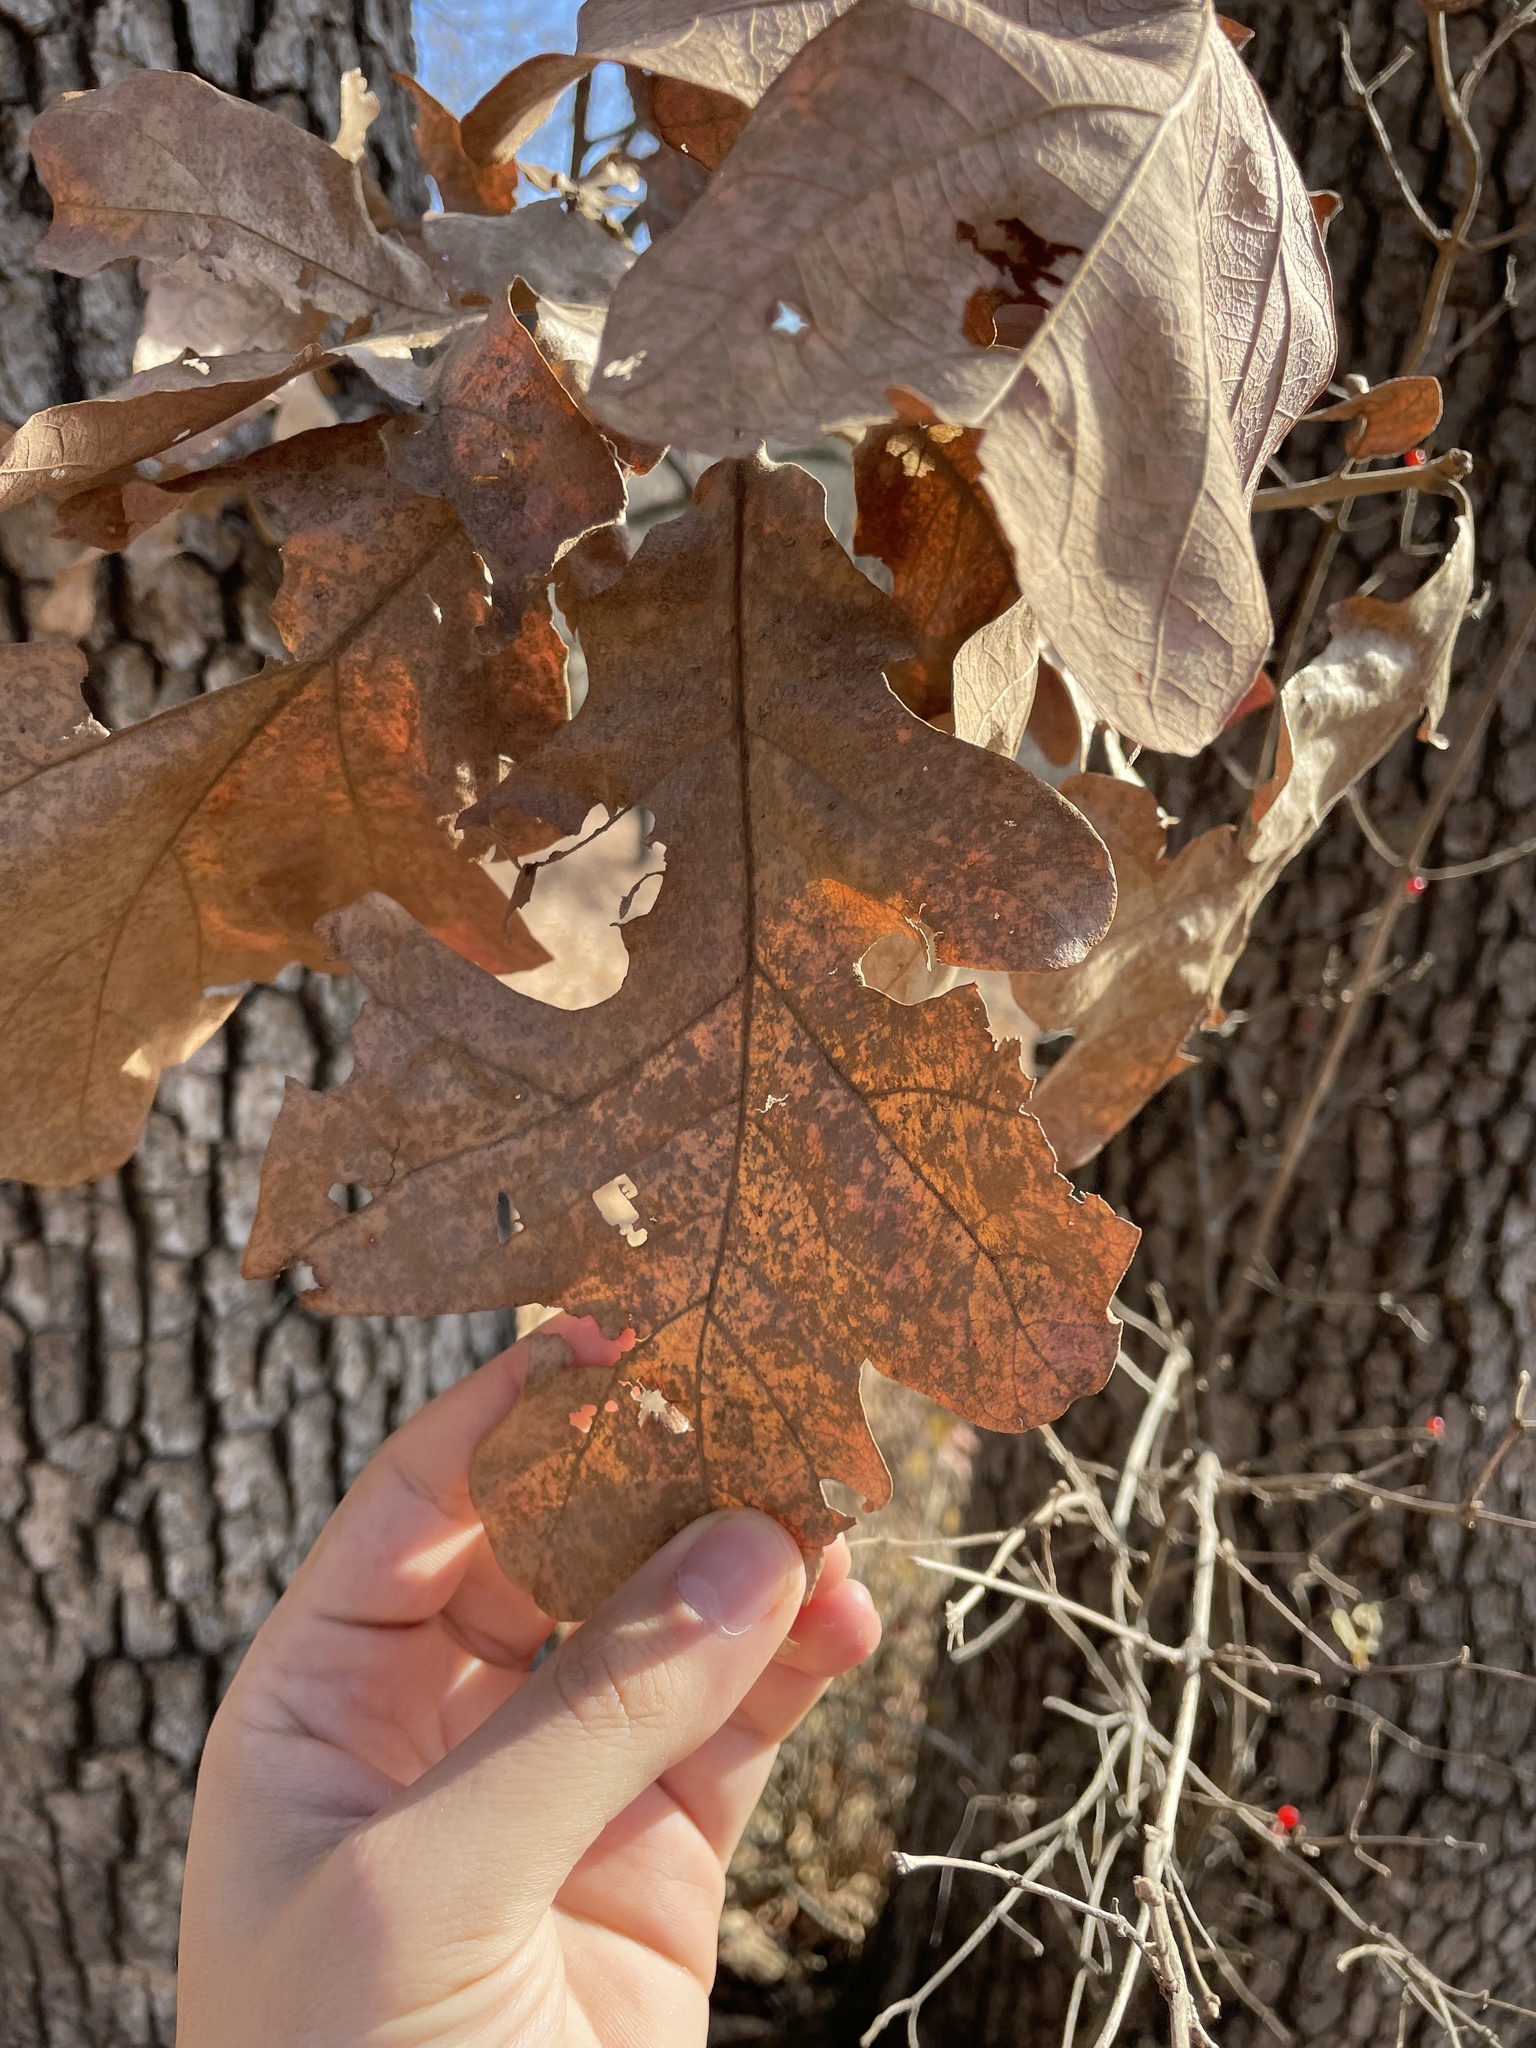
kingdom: Plantae
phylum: Tracheophyta
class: Magnoliopsida
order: Fagales
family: Fagaceae
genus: Quercus
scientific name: Quercus stellata
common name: Post oak
